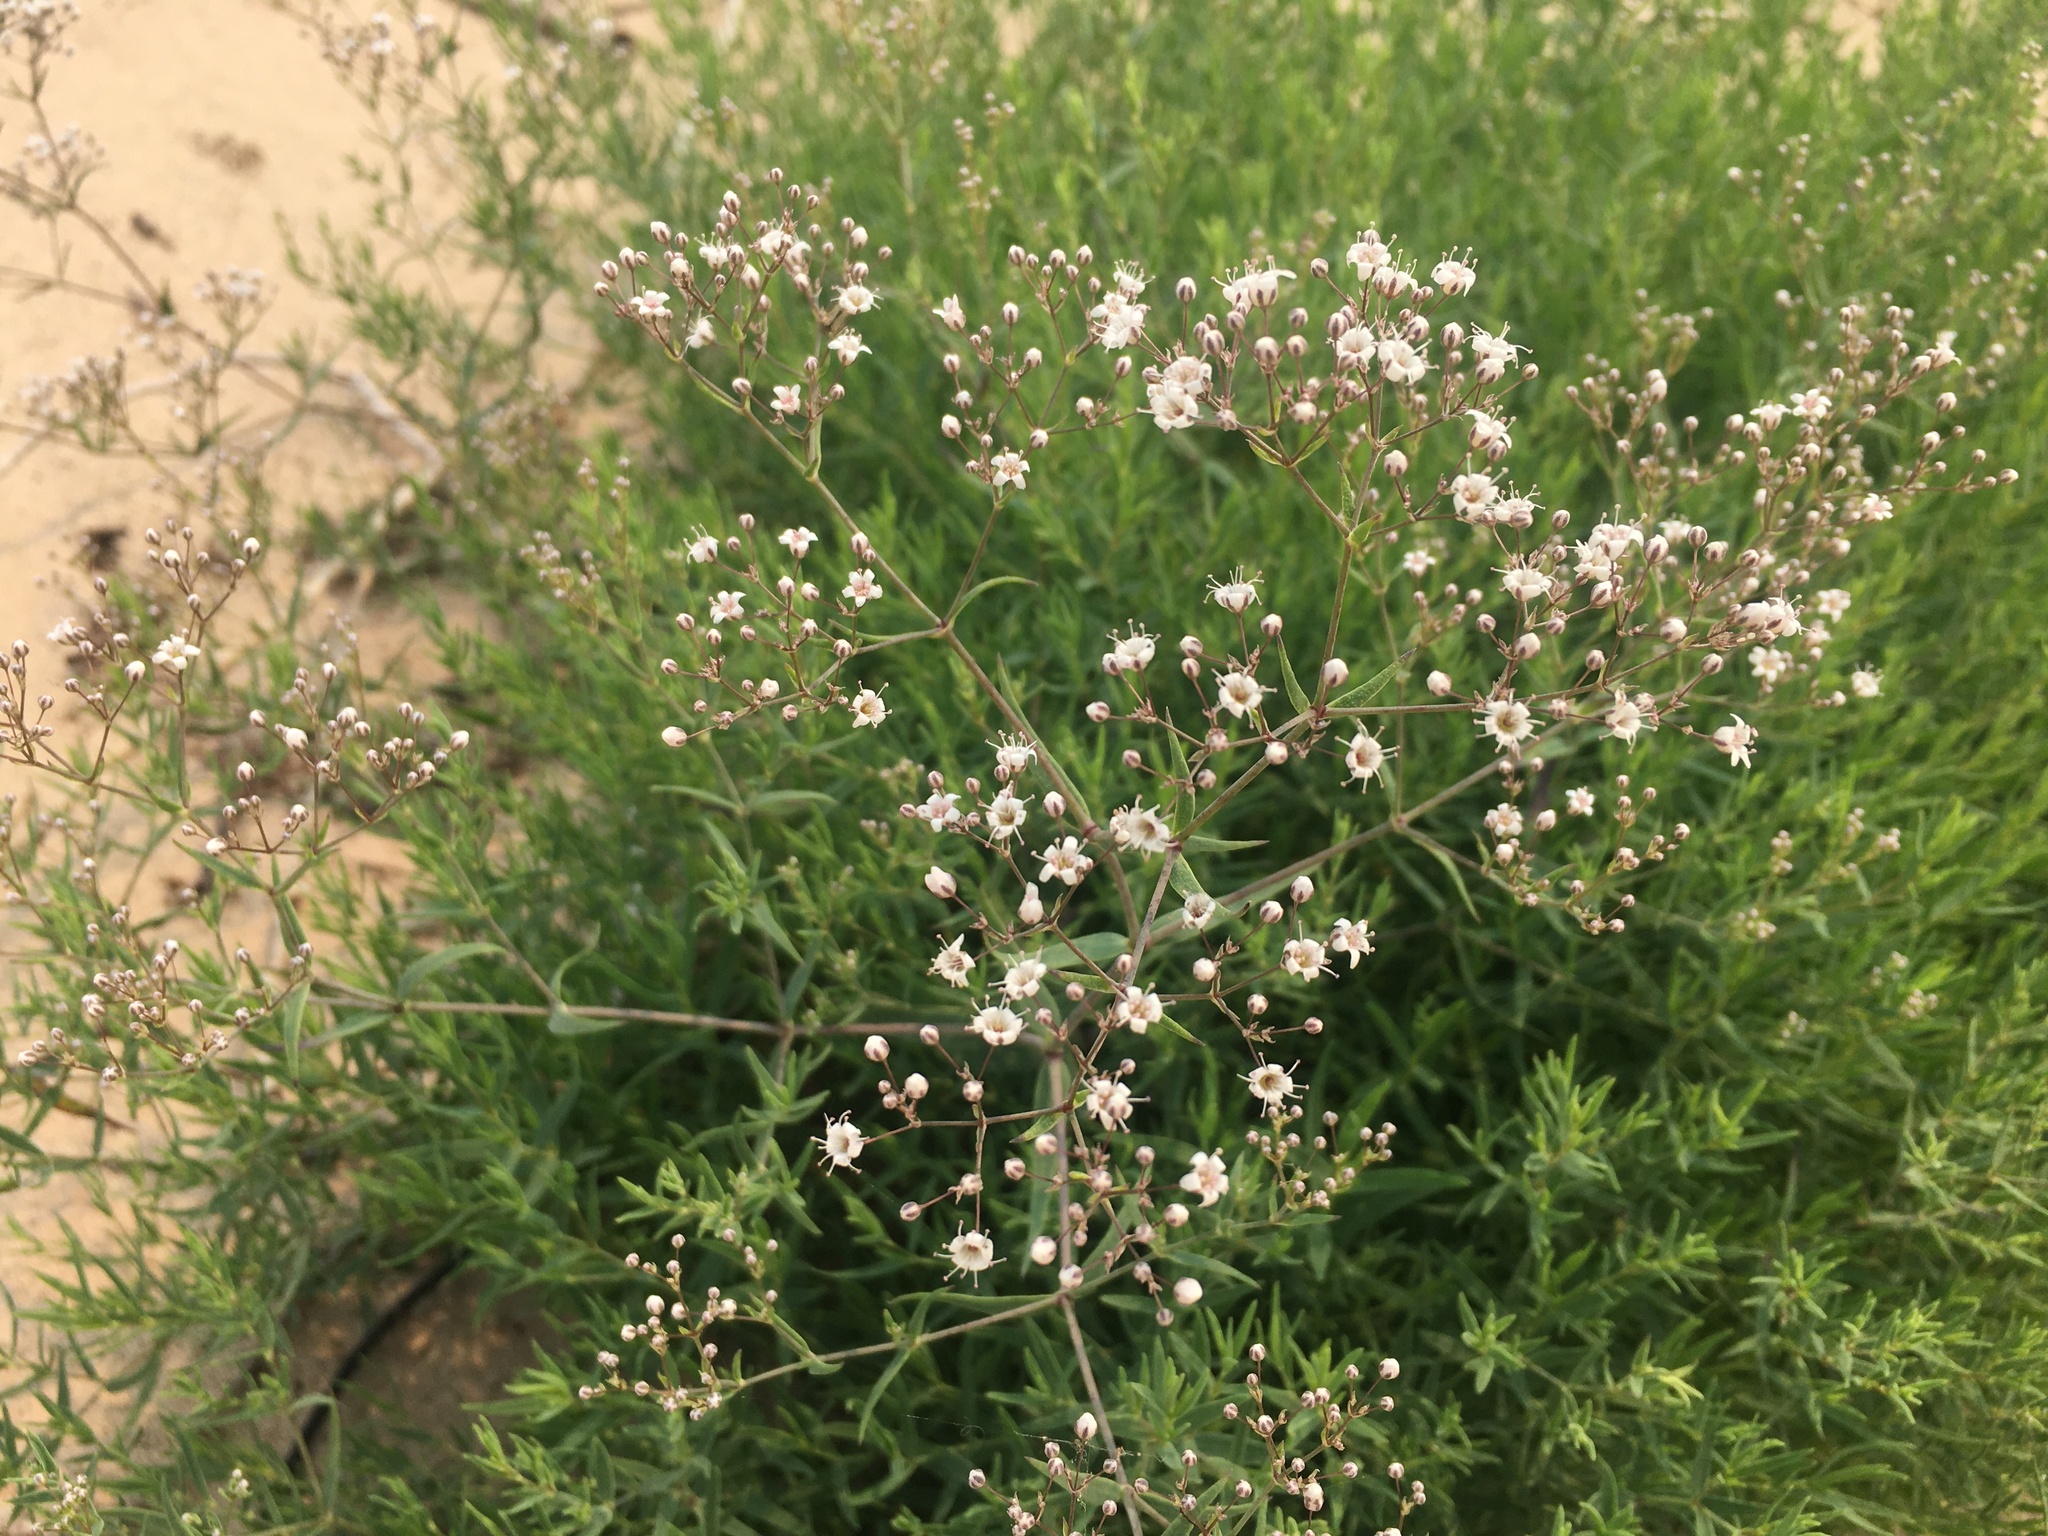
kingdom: Plantae
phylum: Tracheophyta
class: Magnoliopsida
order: Caryophyllales
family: Caryophyllaceae
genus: Gypsophila
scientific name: Gypsophila paniculata
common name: Baby's-breath
